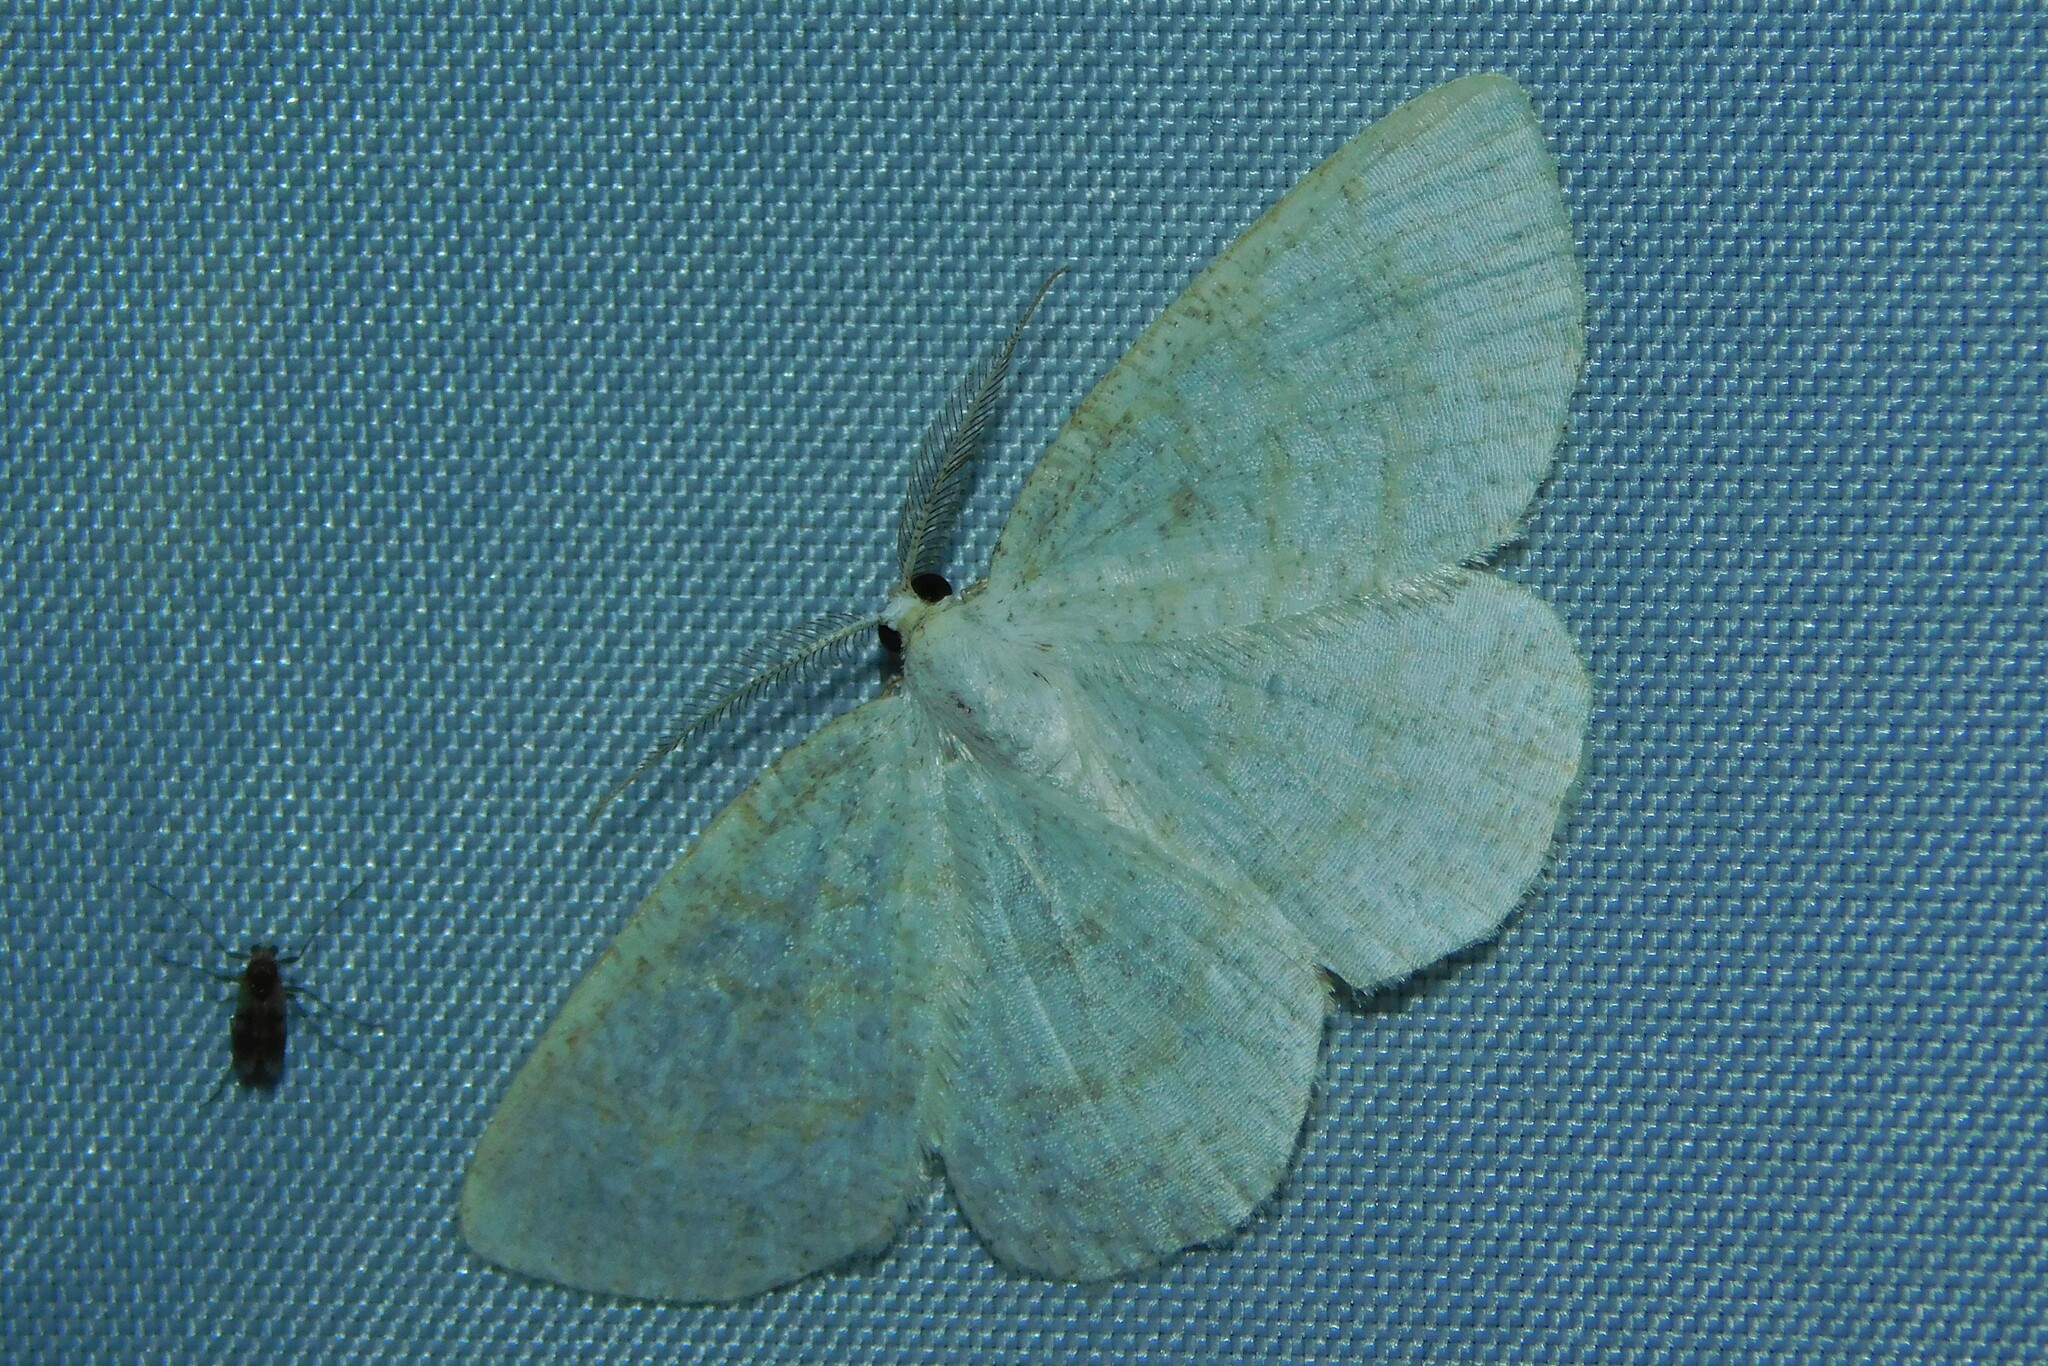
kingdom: Animalia
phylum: Arthropoda
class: Insecta
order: Lepidoptera
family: Geometridae
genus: Cabera
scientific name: Cabera exanthemata
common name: Common wave
